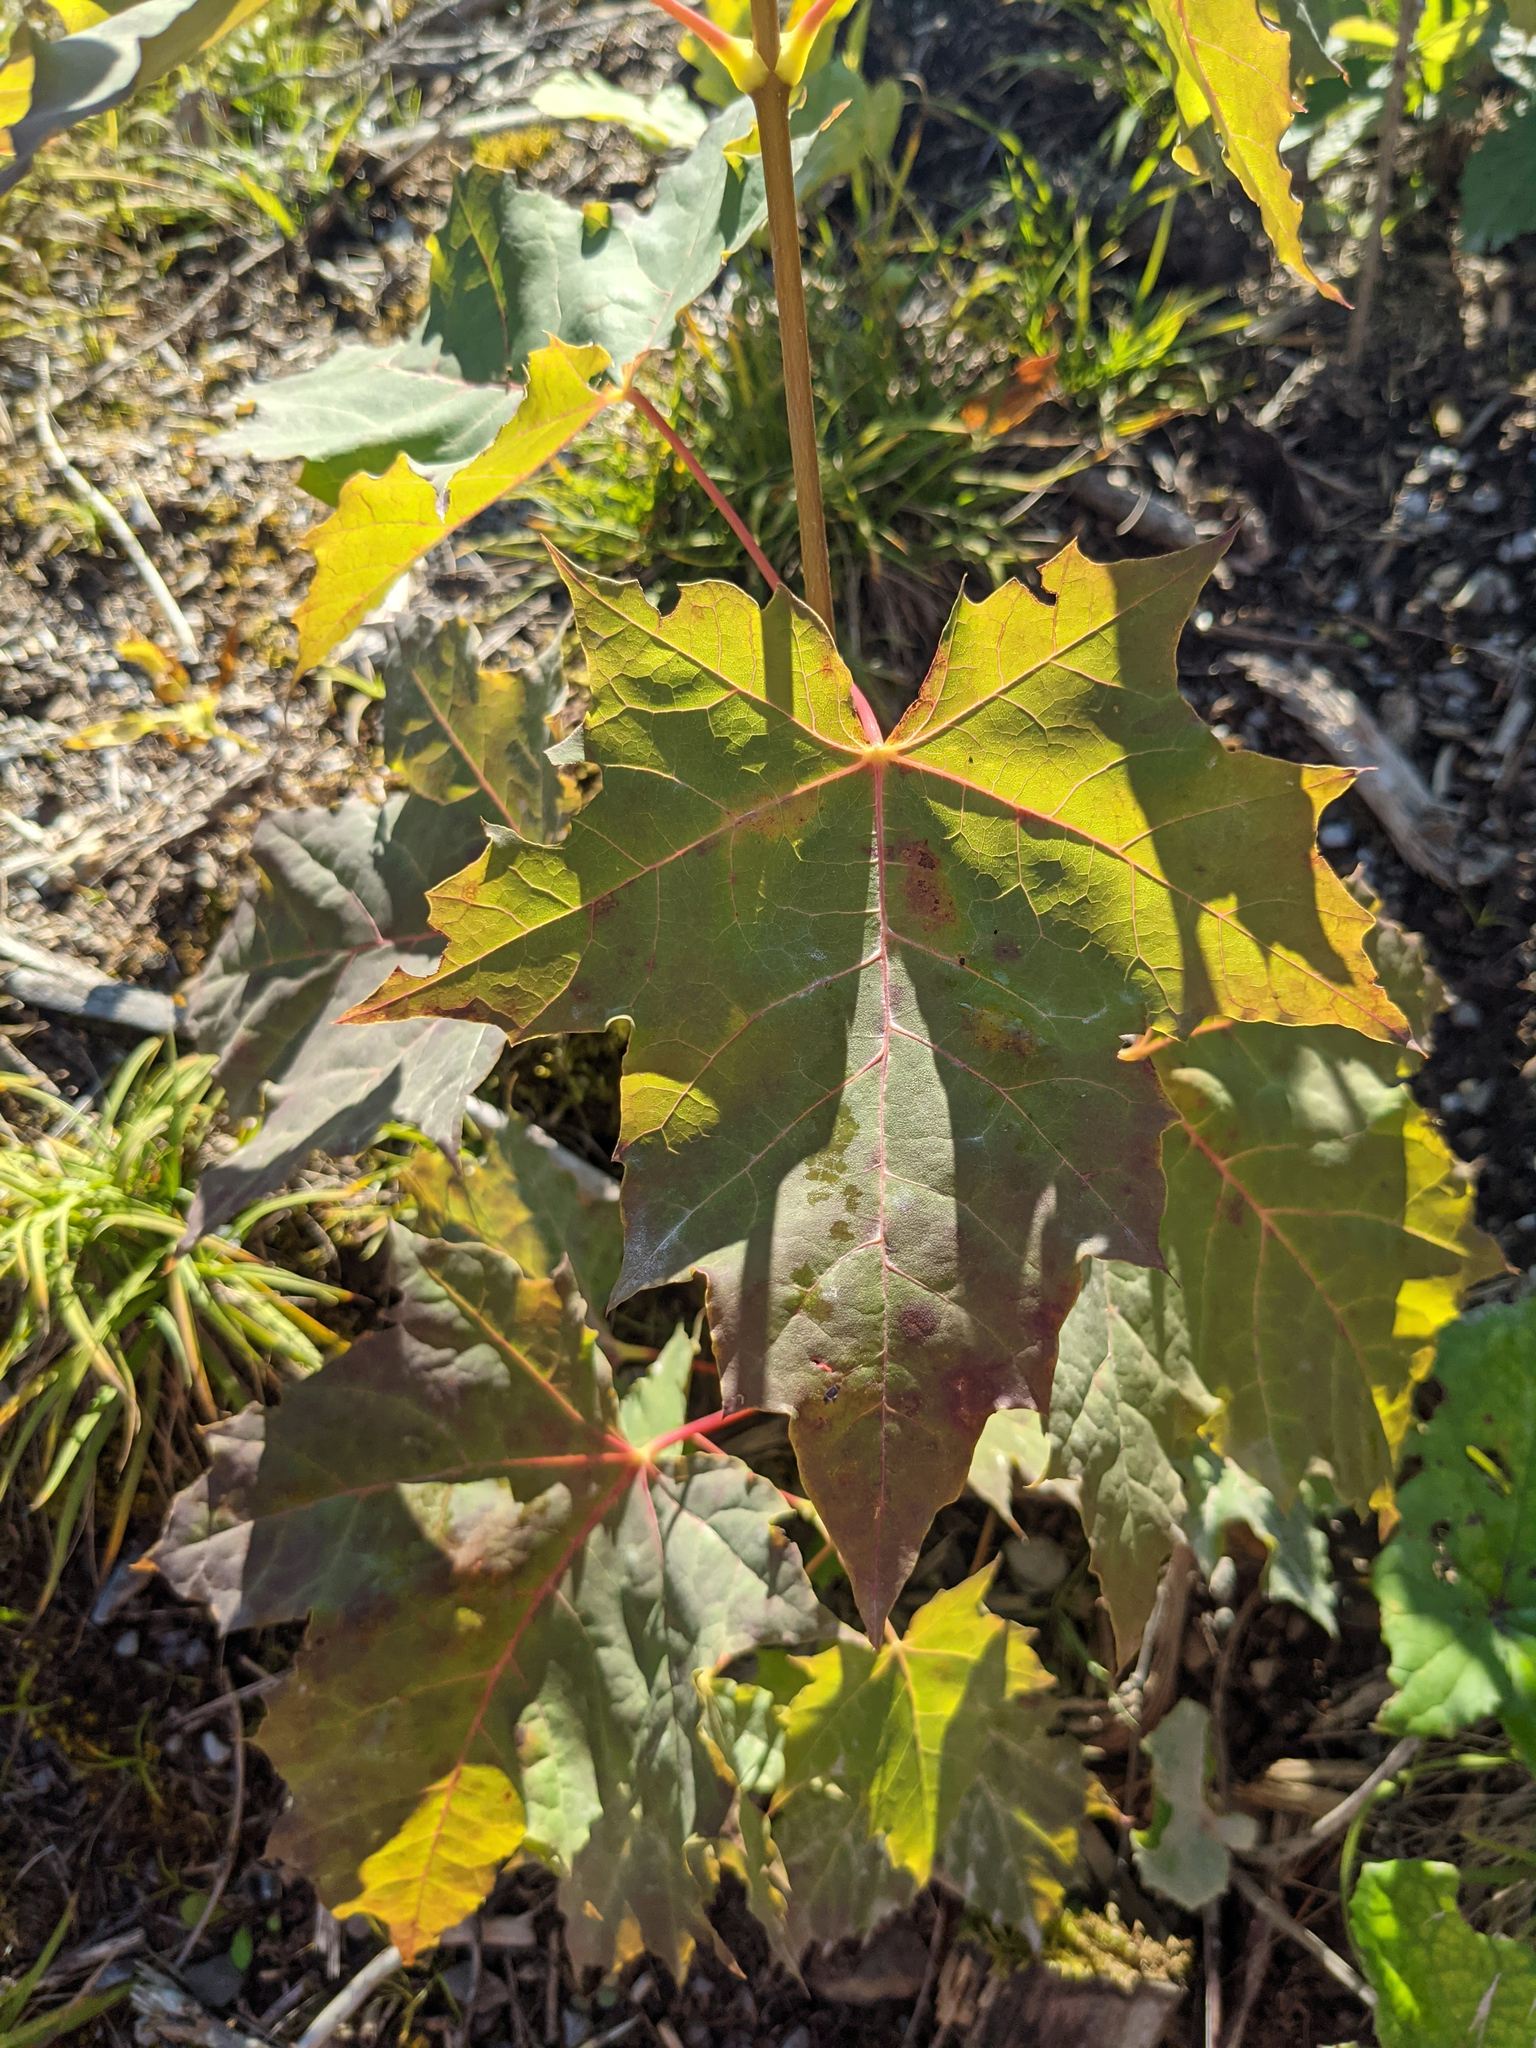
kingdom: Plantae
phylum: Tracheophyta
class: Magnoliopsida
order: Sapindales
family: Sapindaceae
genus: Acer
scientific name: Acer platanoides
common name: Norway maple
